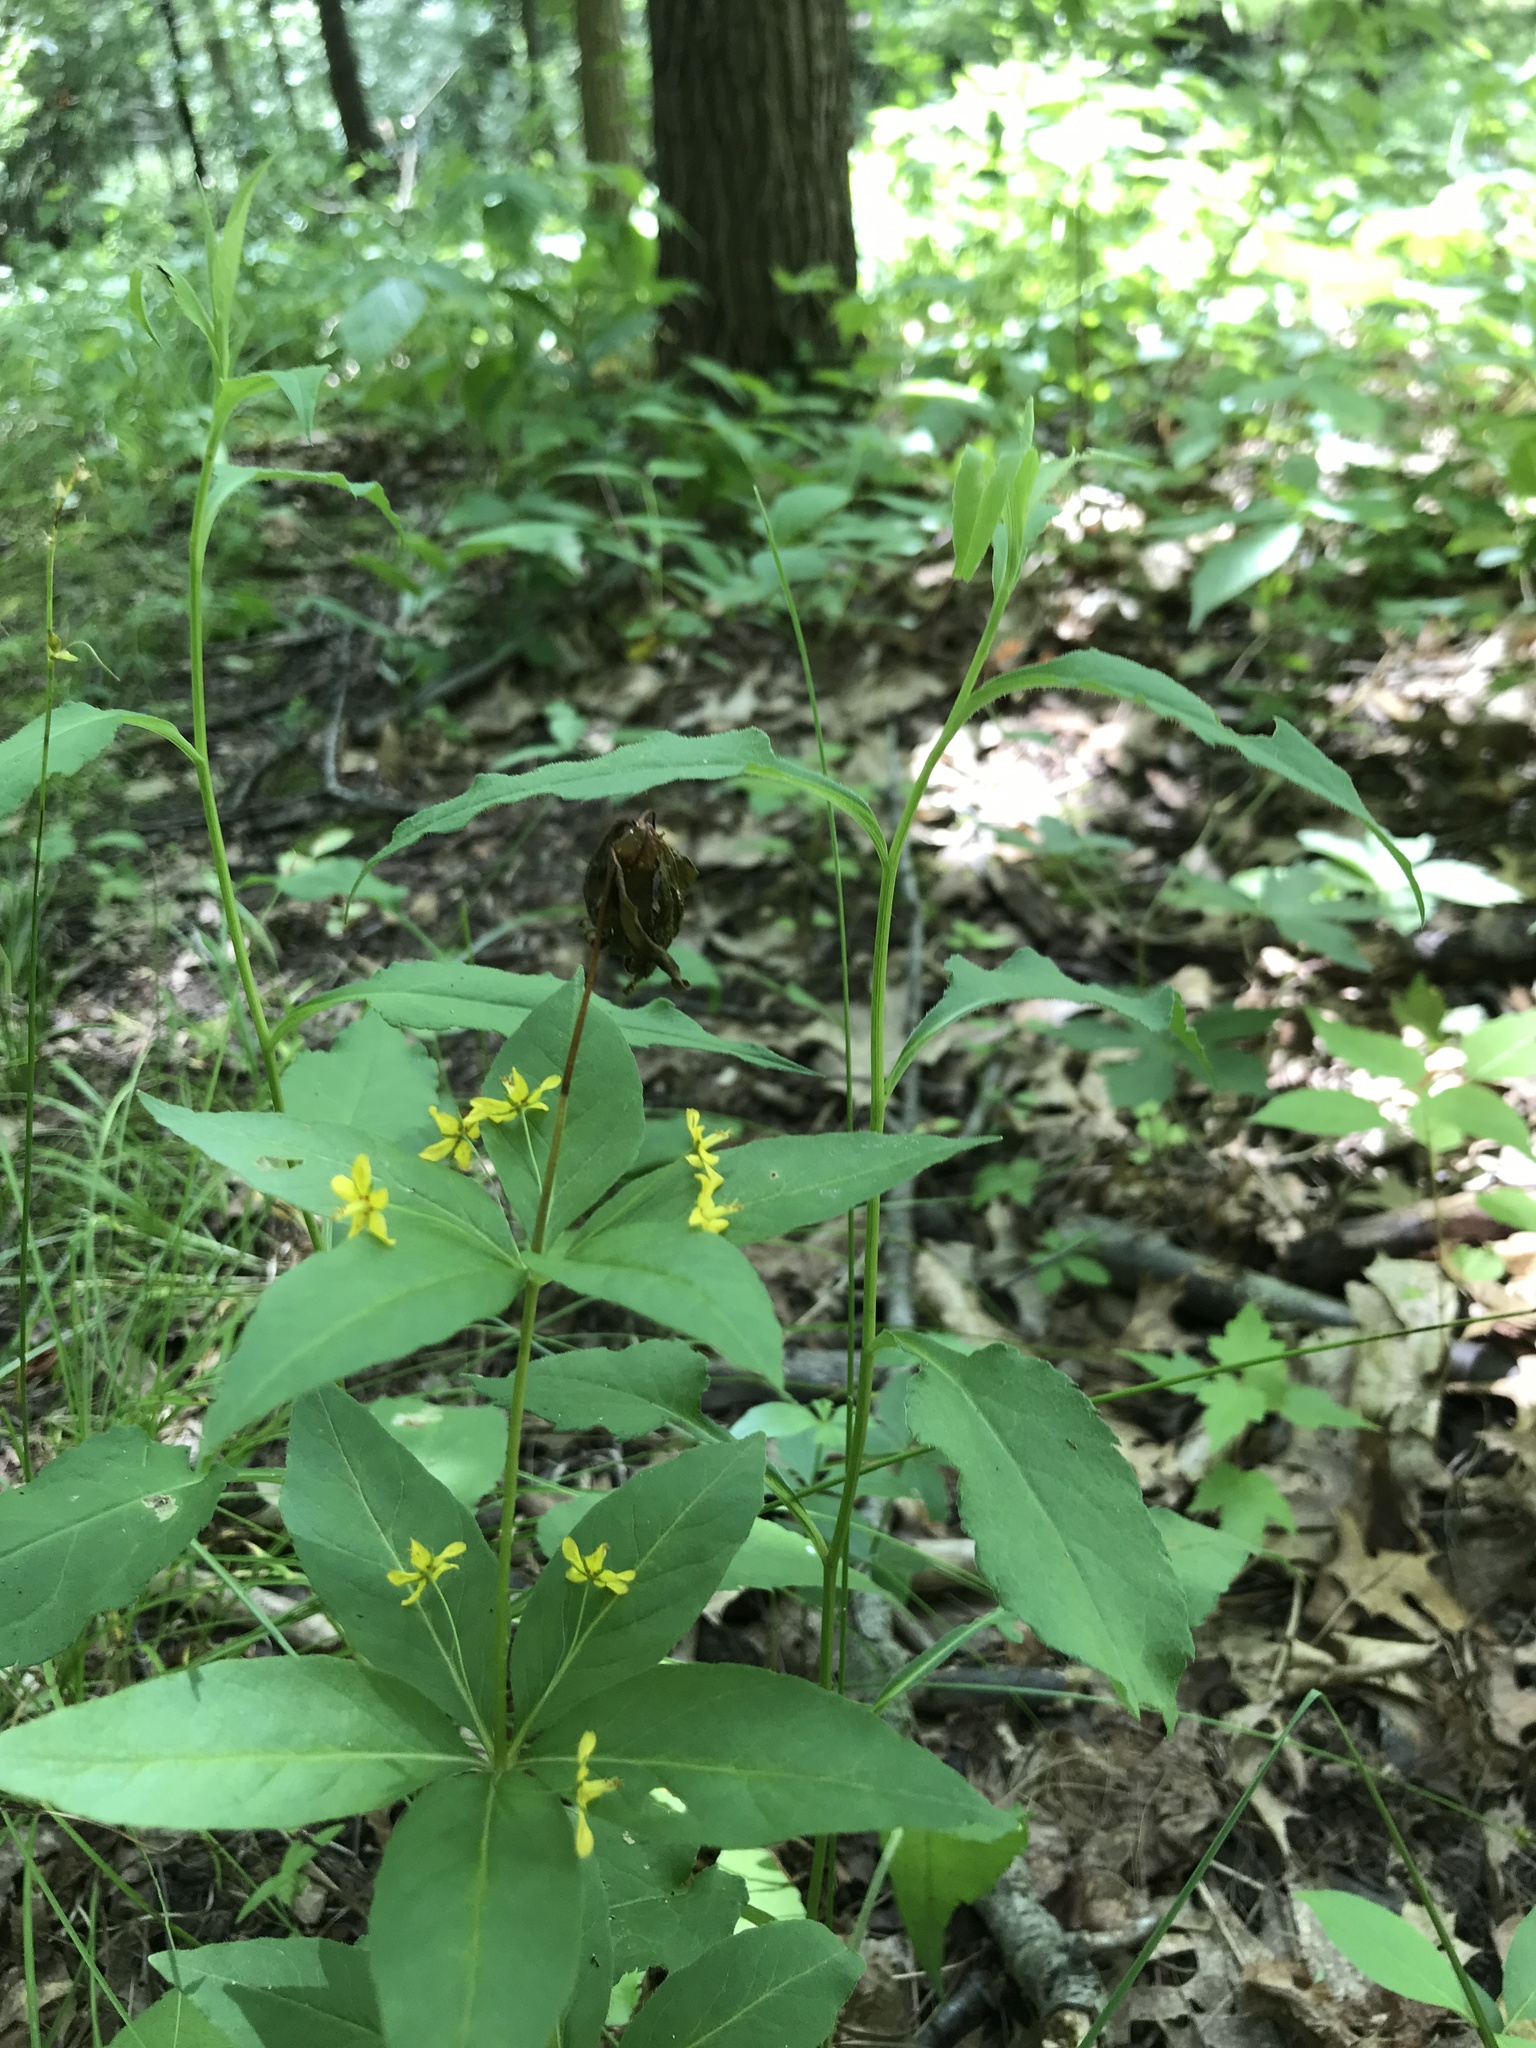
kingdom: Plantae
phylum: Tracheophyta
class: Magnoliopsida
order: Ericales
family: Primulaceae
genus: Lysimachia
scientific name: Lysimachia quadrifolia
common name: Whorled loosestrife
